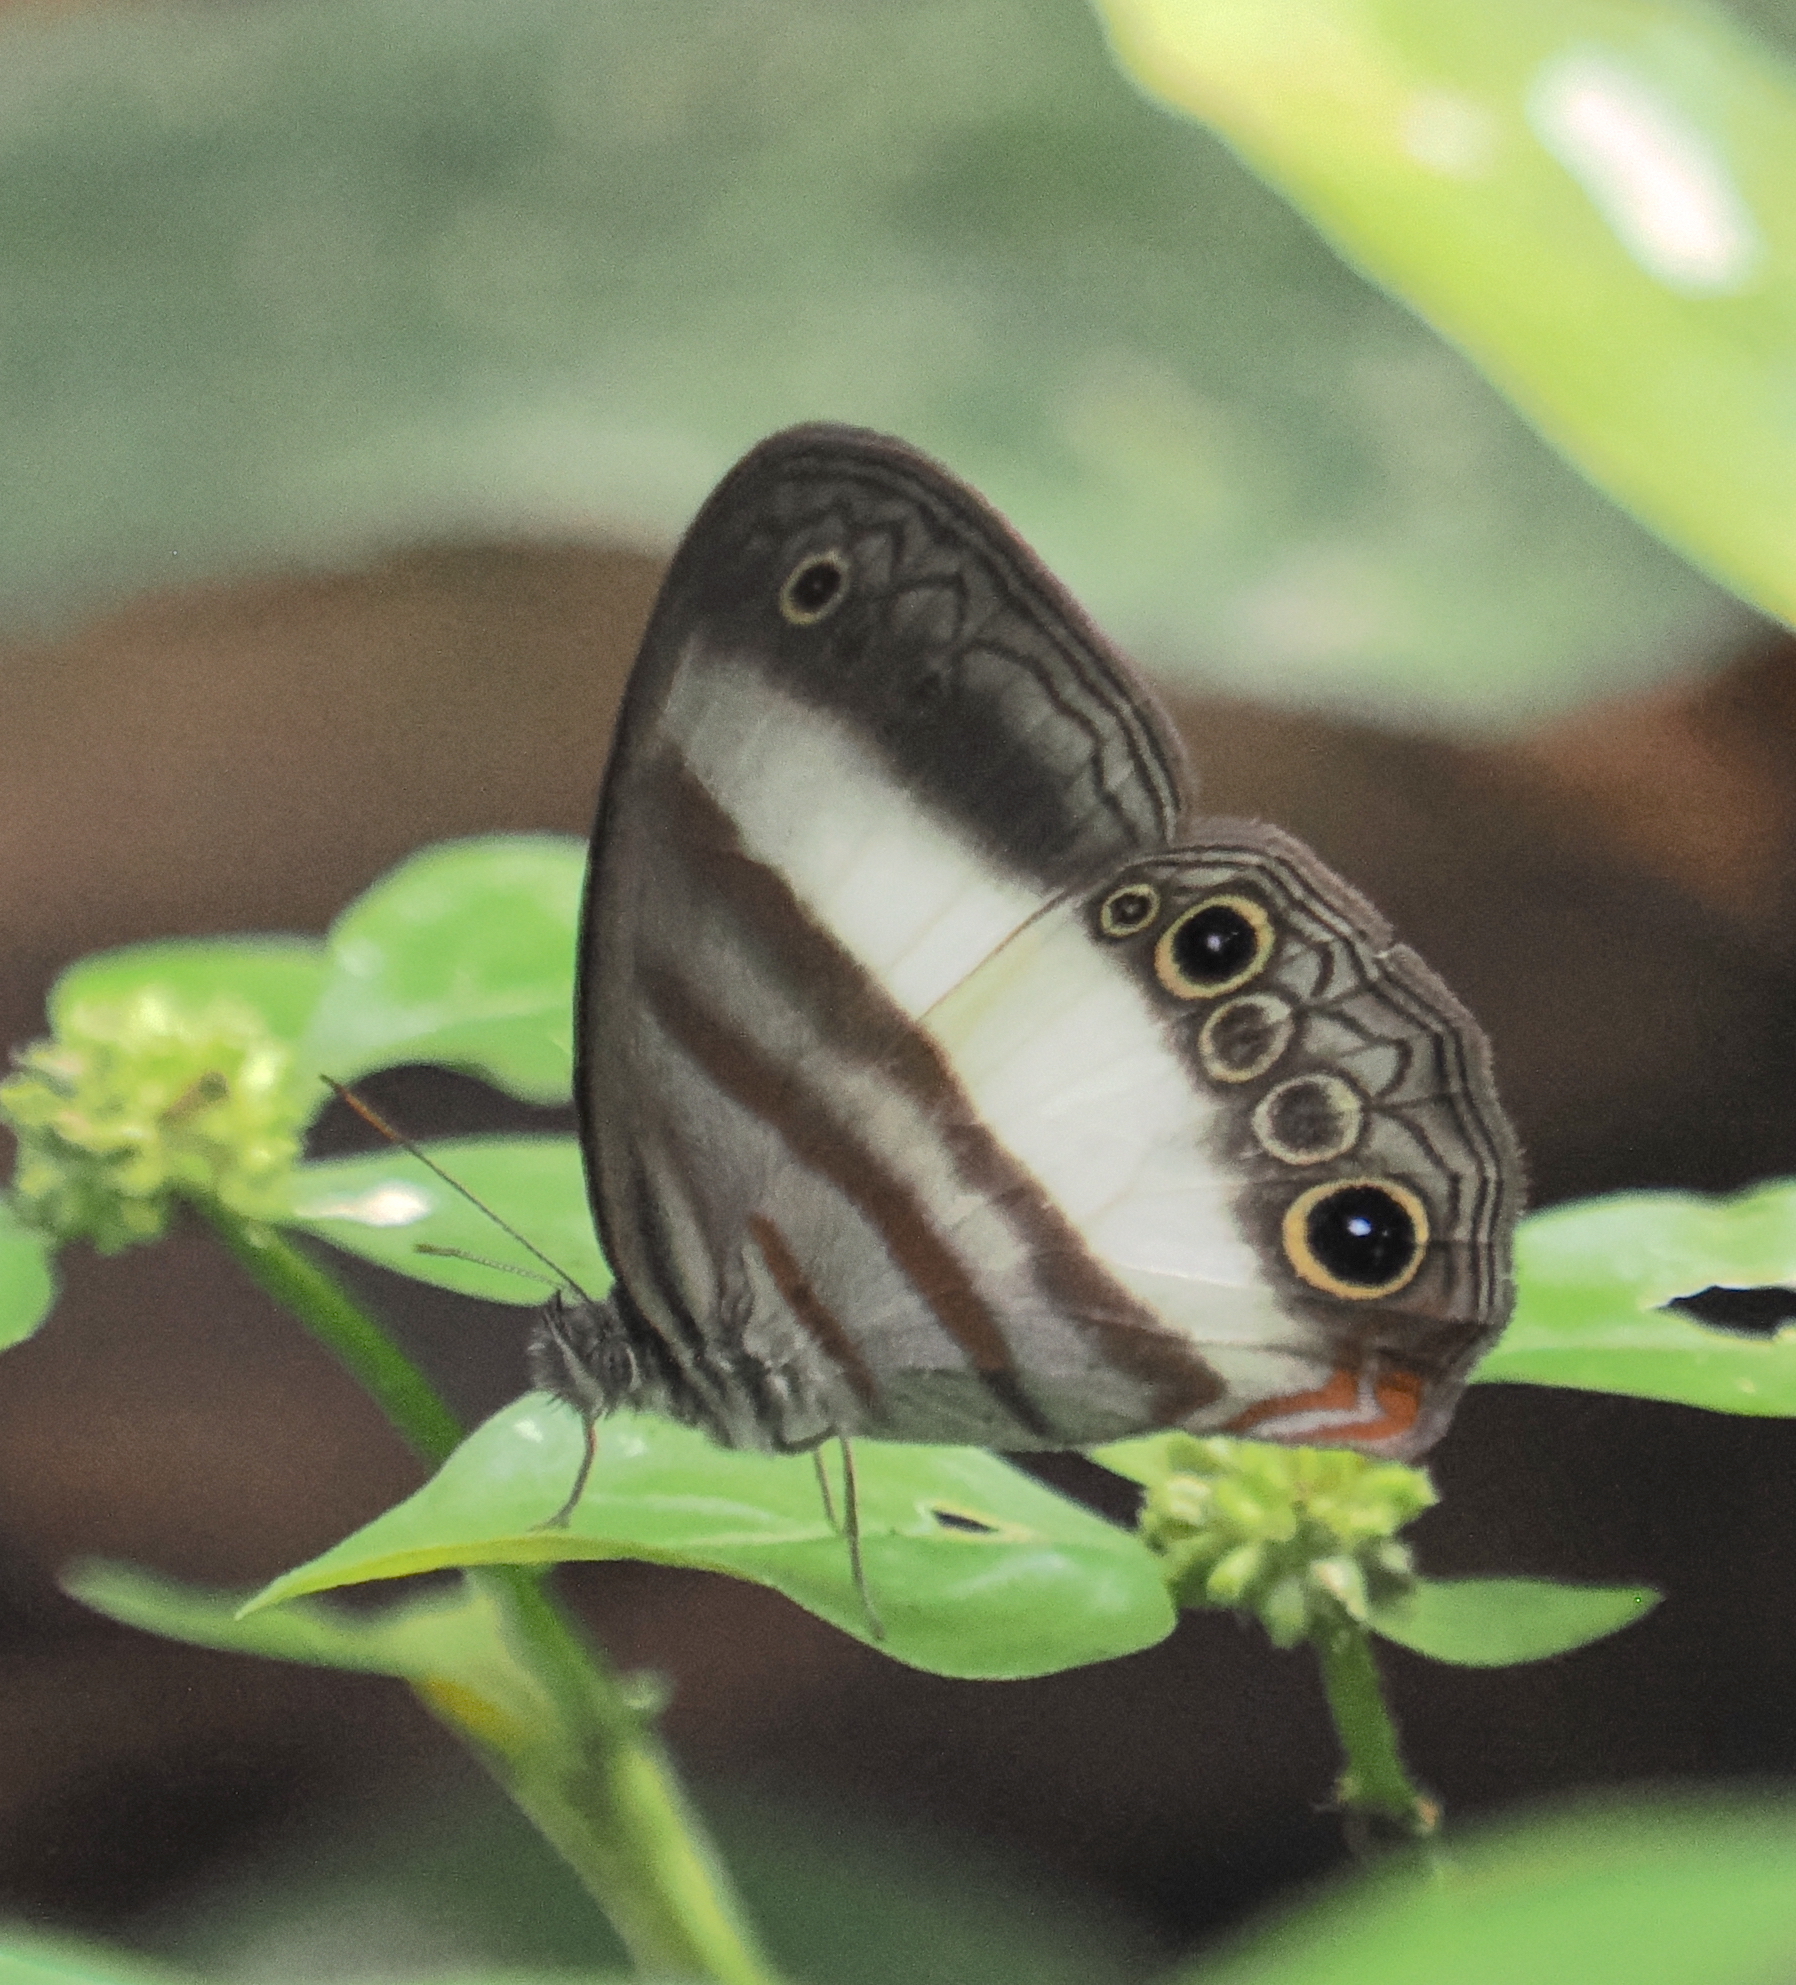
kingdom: Animalia
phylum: Arthropoda
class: Insecta
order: Lepidoptera
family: Nymphalidae
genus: Pareuptychia
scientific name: Pareuptychia metaleuca
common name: White-banded satyr
